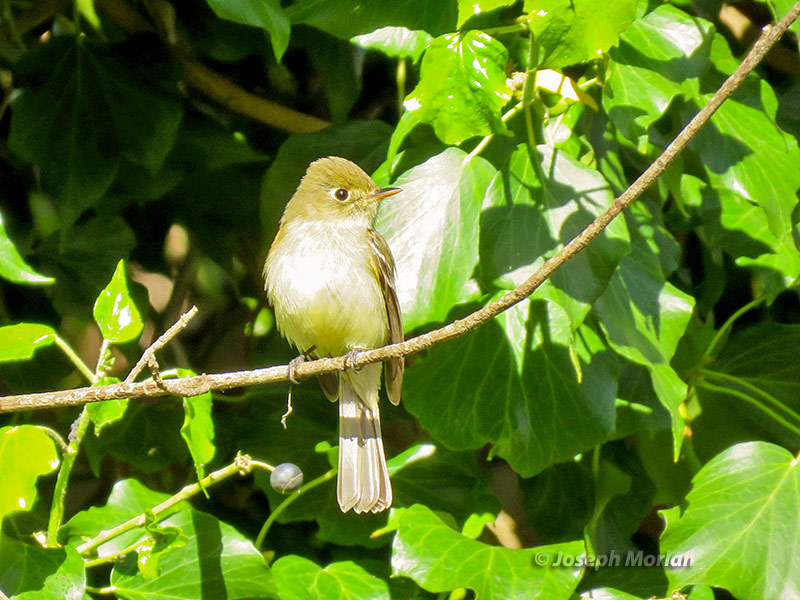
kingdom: Animalia
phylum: Chordata
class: Aves
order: Passeriformes
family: Tyrannidae
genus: Empidonax
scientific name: Empidonax difficilis
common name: Pacific-slope flycatcher
